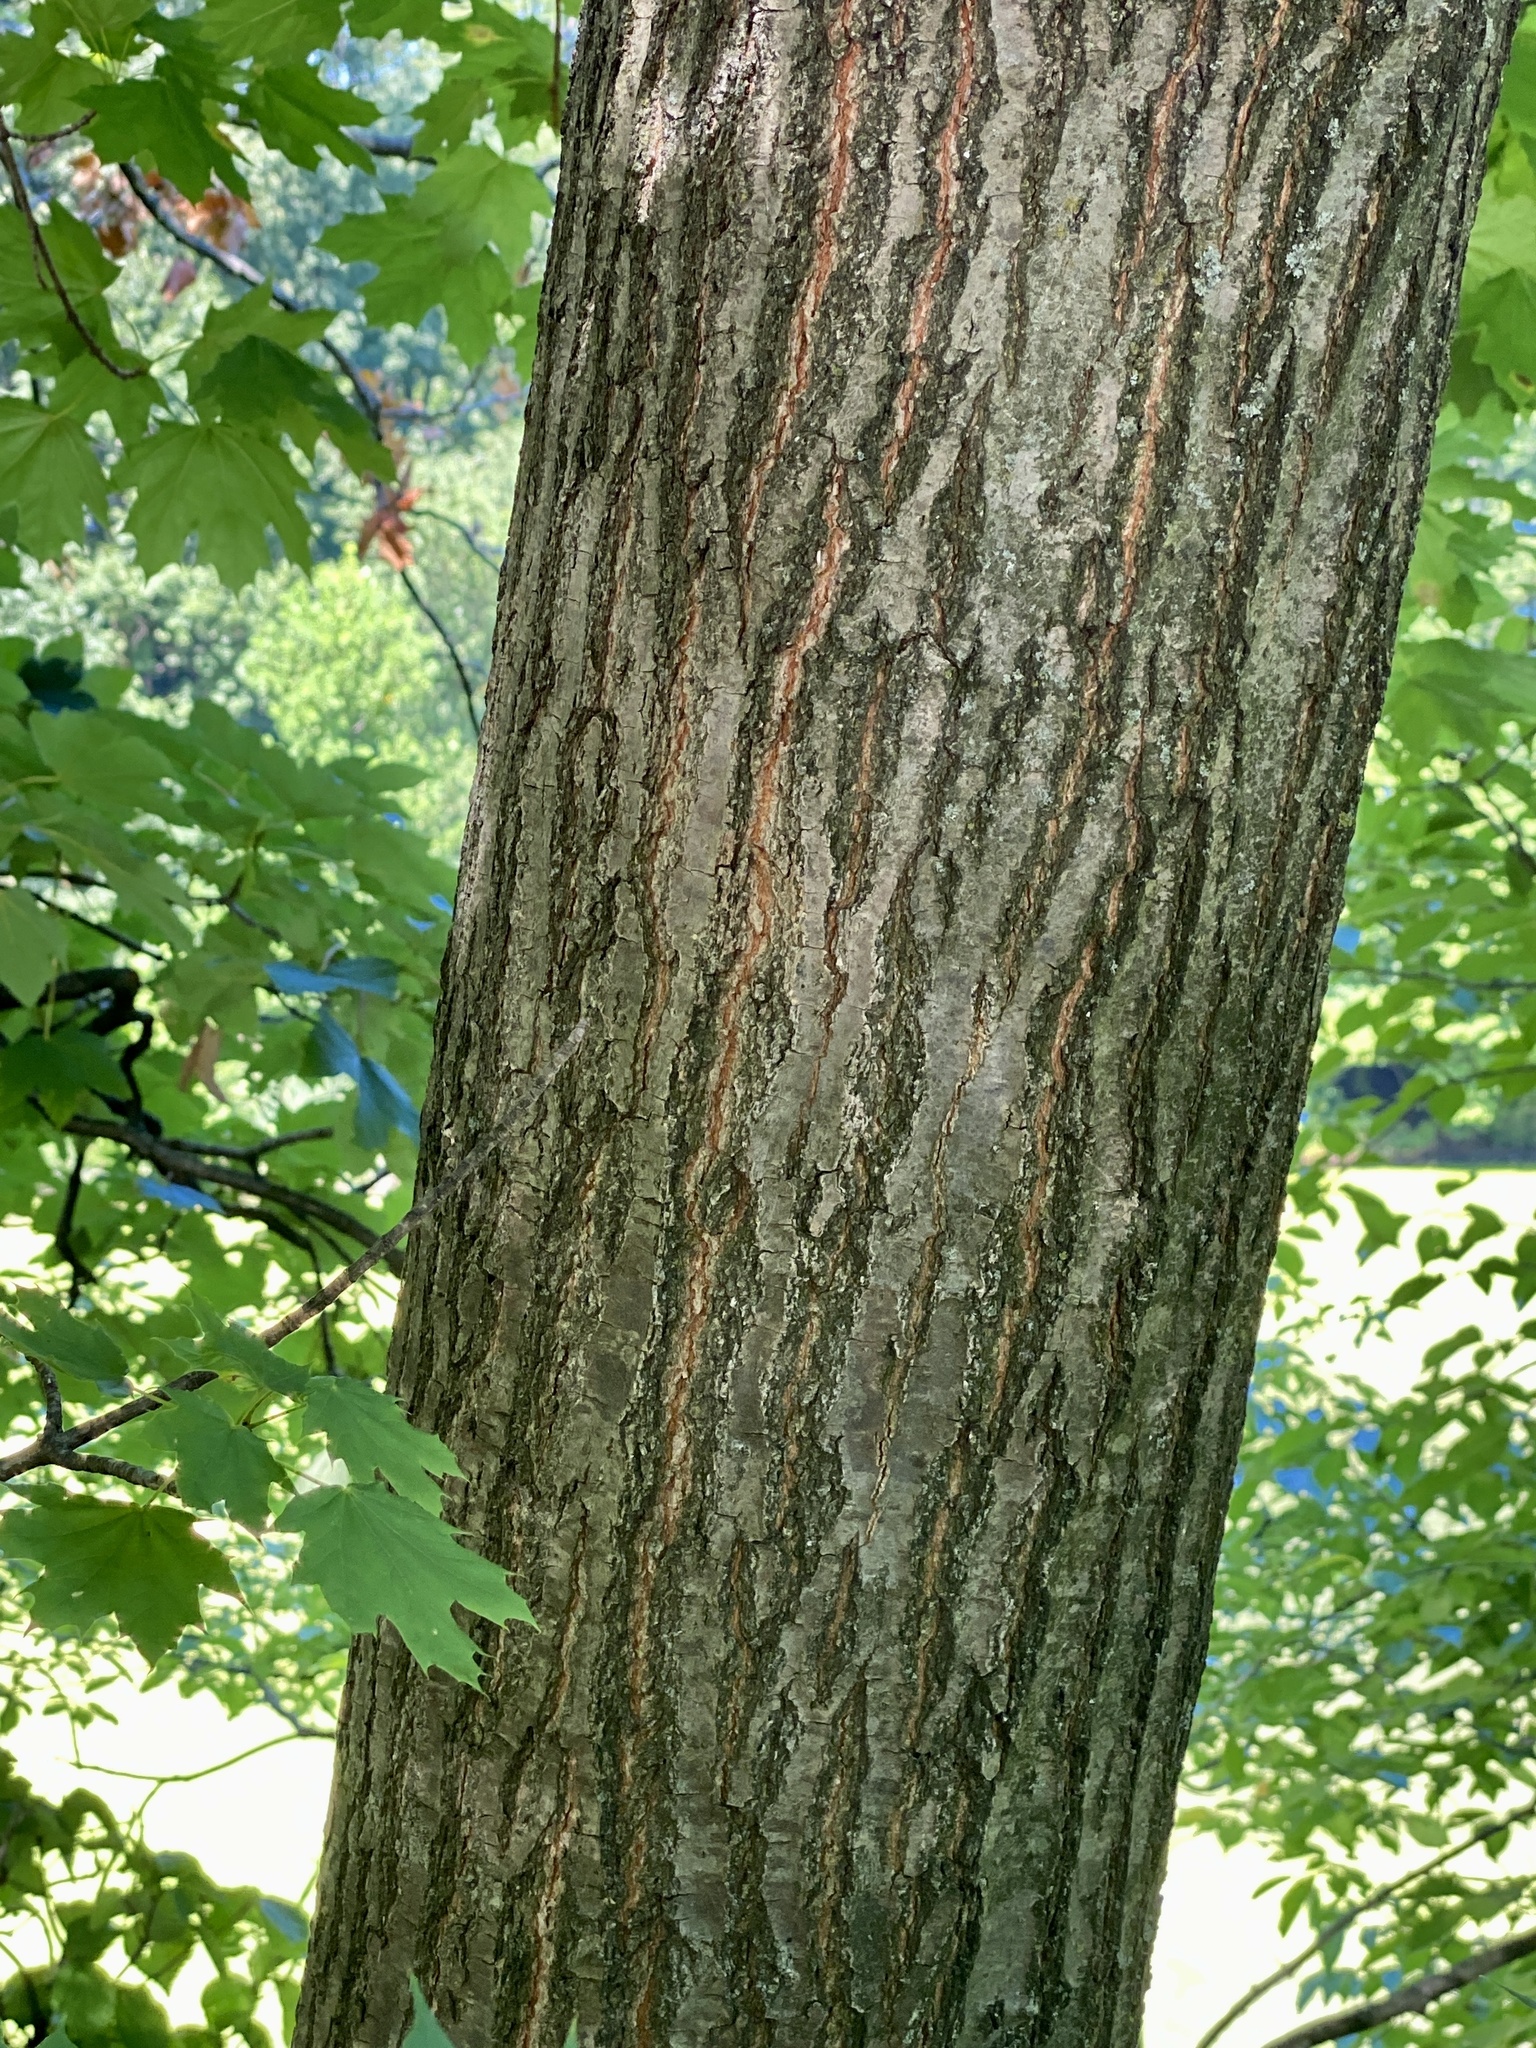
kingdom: Plantae
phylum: Tracheophyta
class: Magnoliopsida
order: Sapindales
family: Sapindaceae
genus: Acer
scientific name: Acer platanoides
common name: Norway maple
